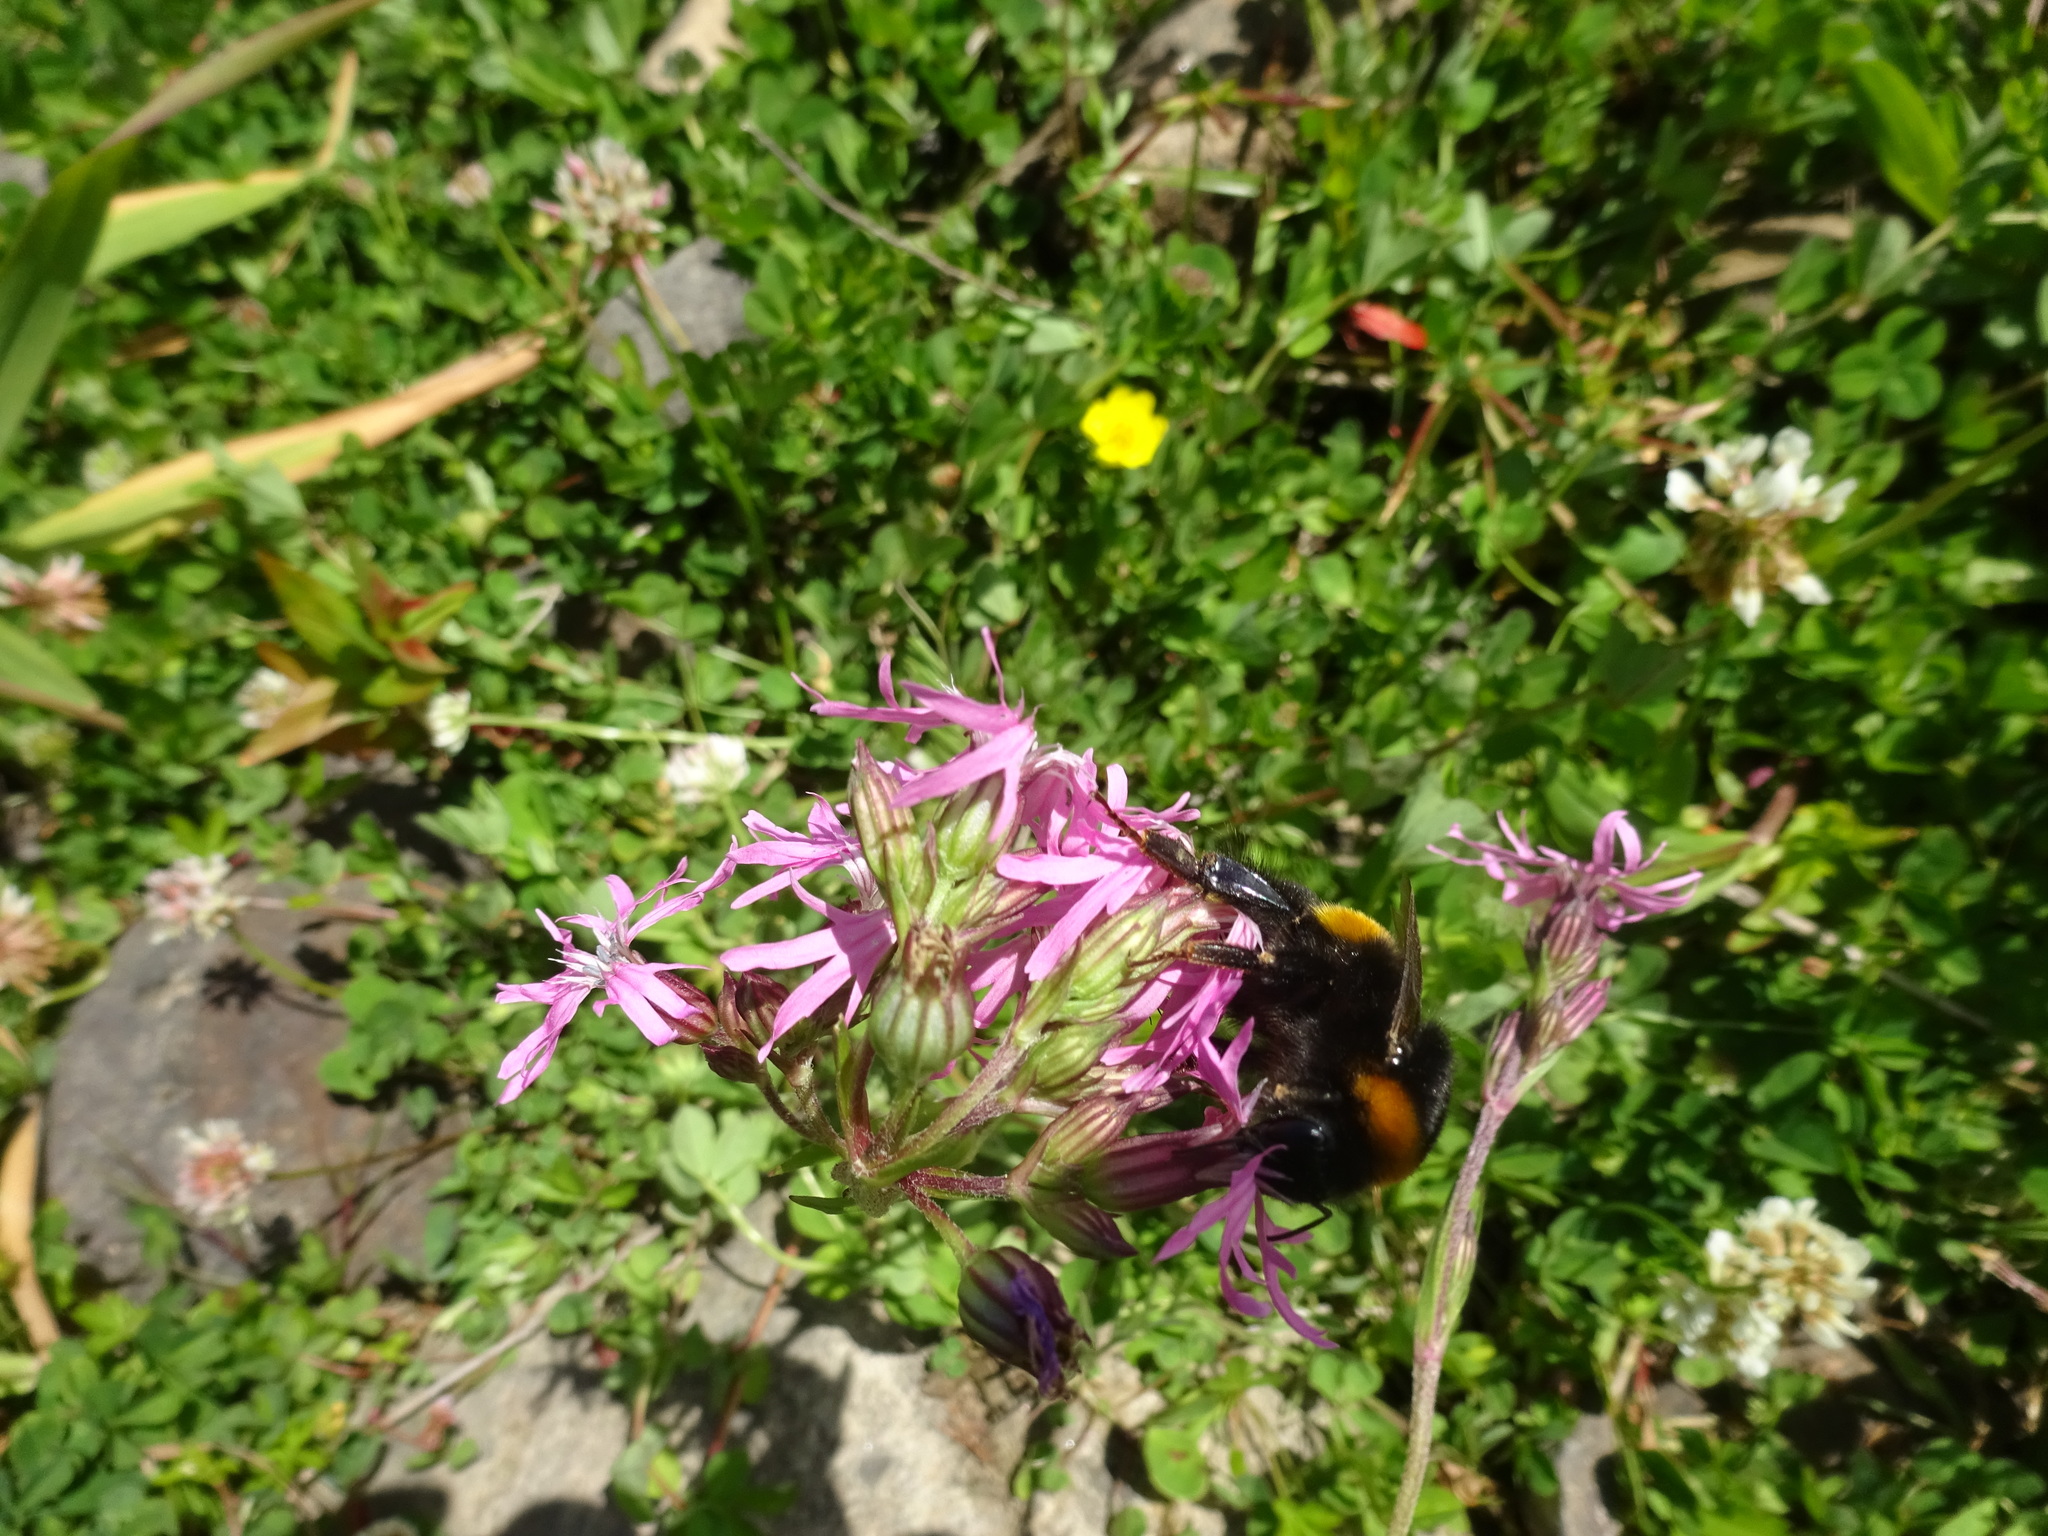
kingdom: Plantae
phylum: Tracheophyta
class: Magnoliopsida
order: Caryophyllales
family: Caryophyllaceae
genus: Silene
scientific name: Silene flos-cuculi
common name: Ragged-robin
